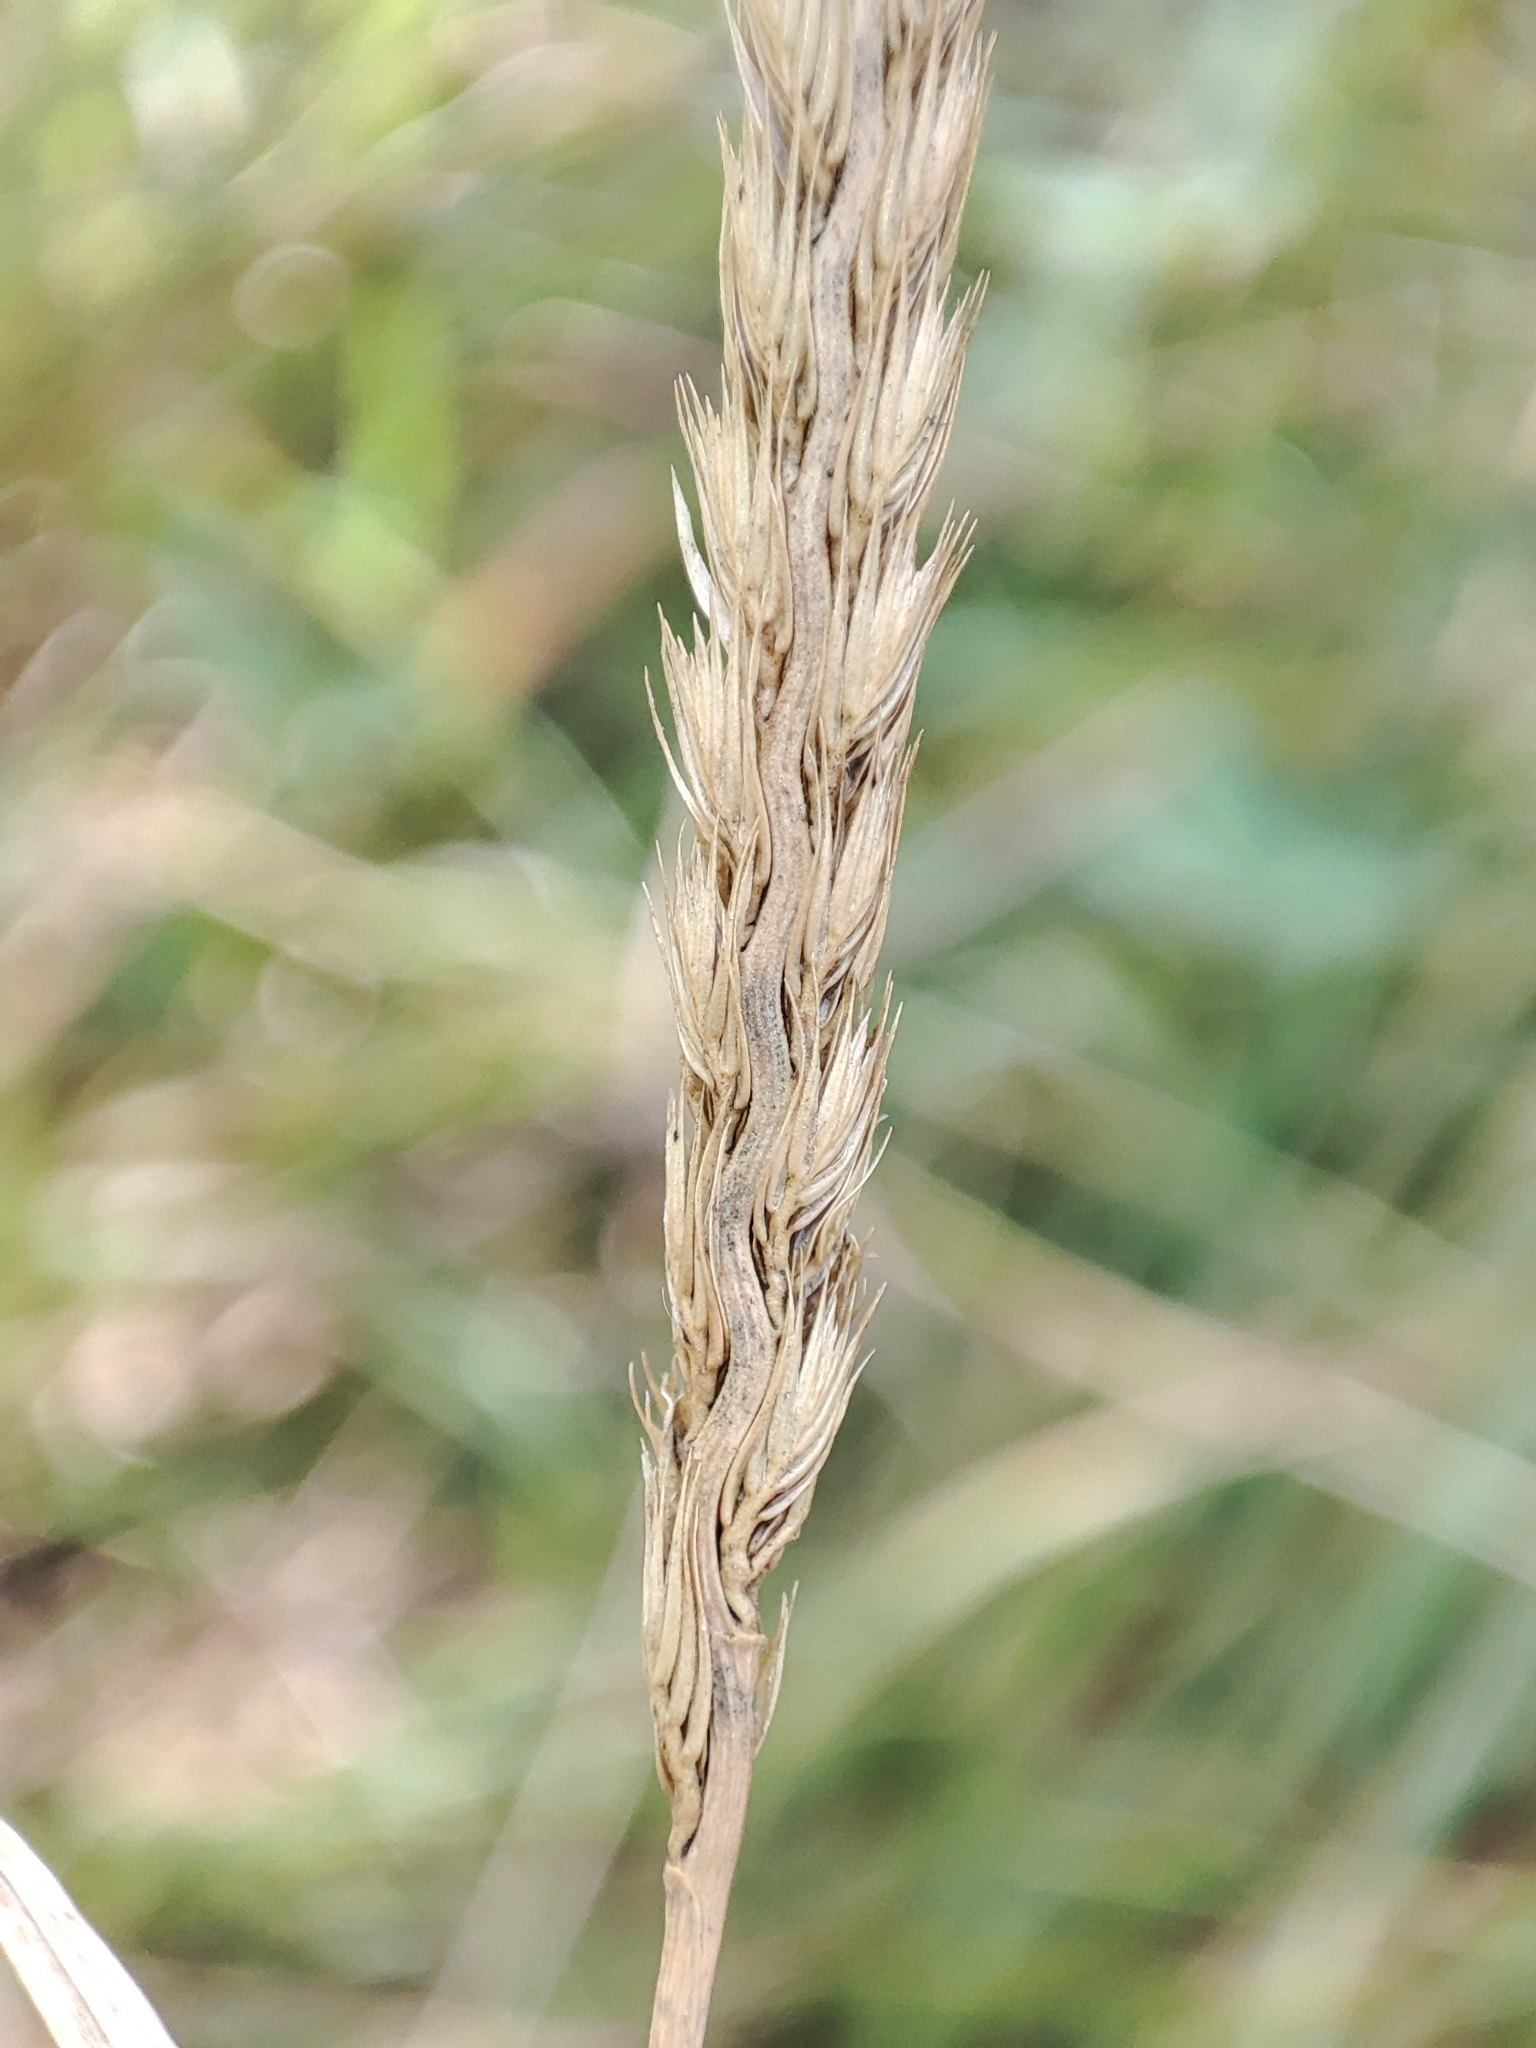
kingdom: Plantae
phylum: Tracheophyta
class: Liliopsida
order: Poales
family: Poaceae
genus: Cynosurus
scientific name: Cynosurus cristatus
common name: Crested dog's-tail
